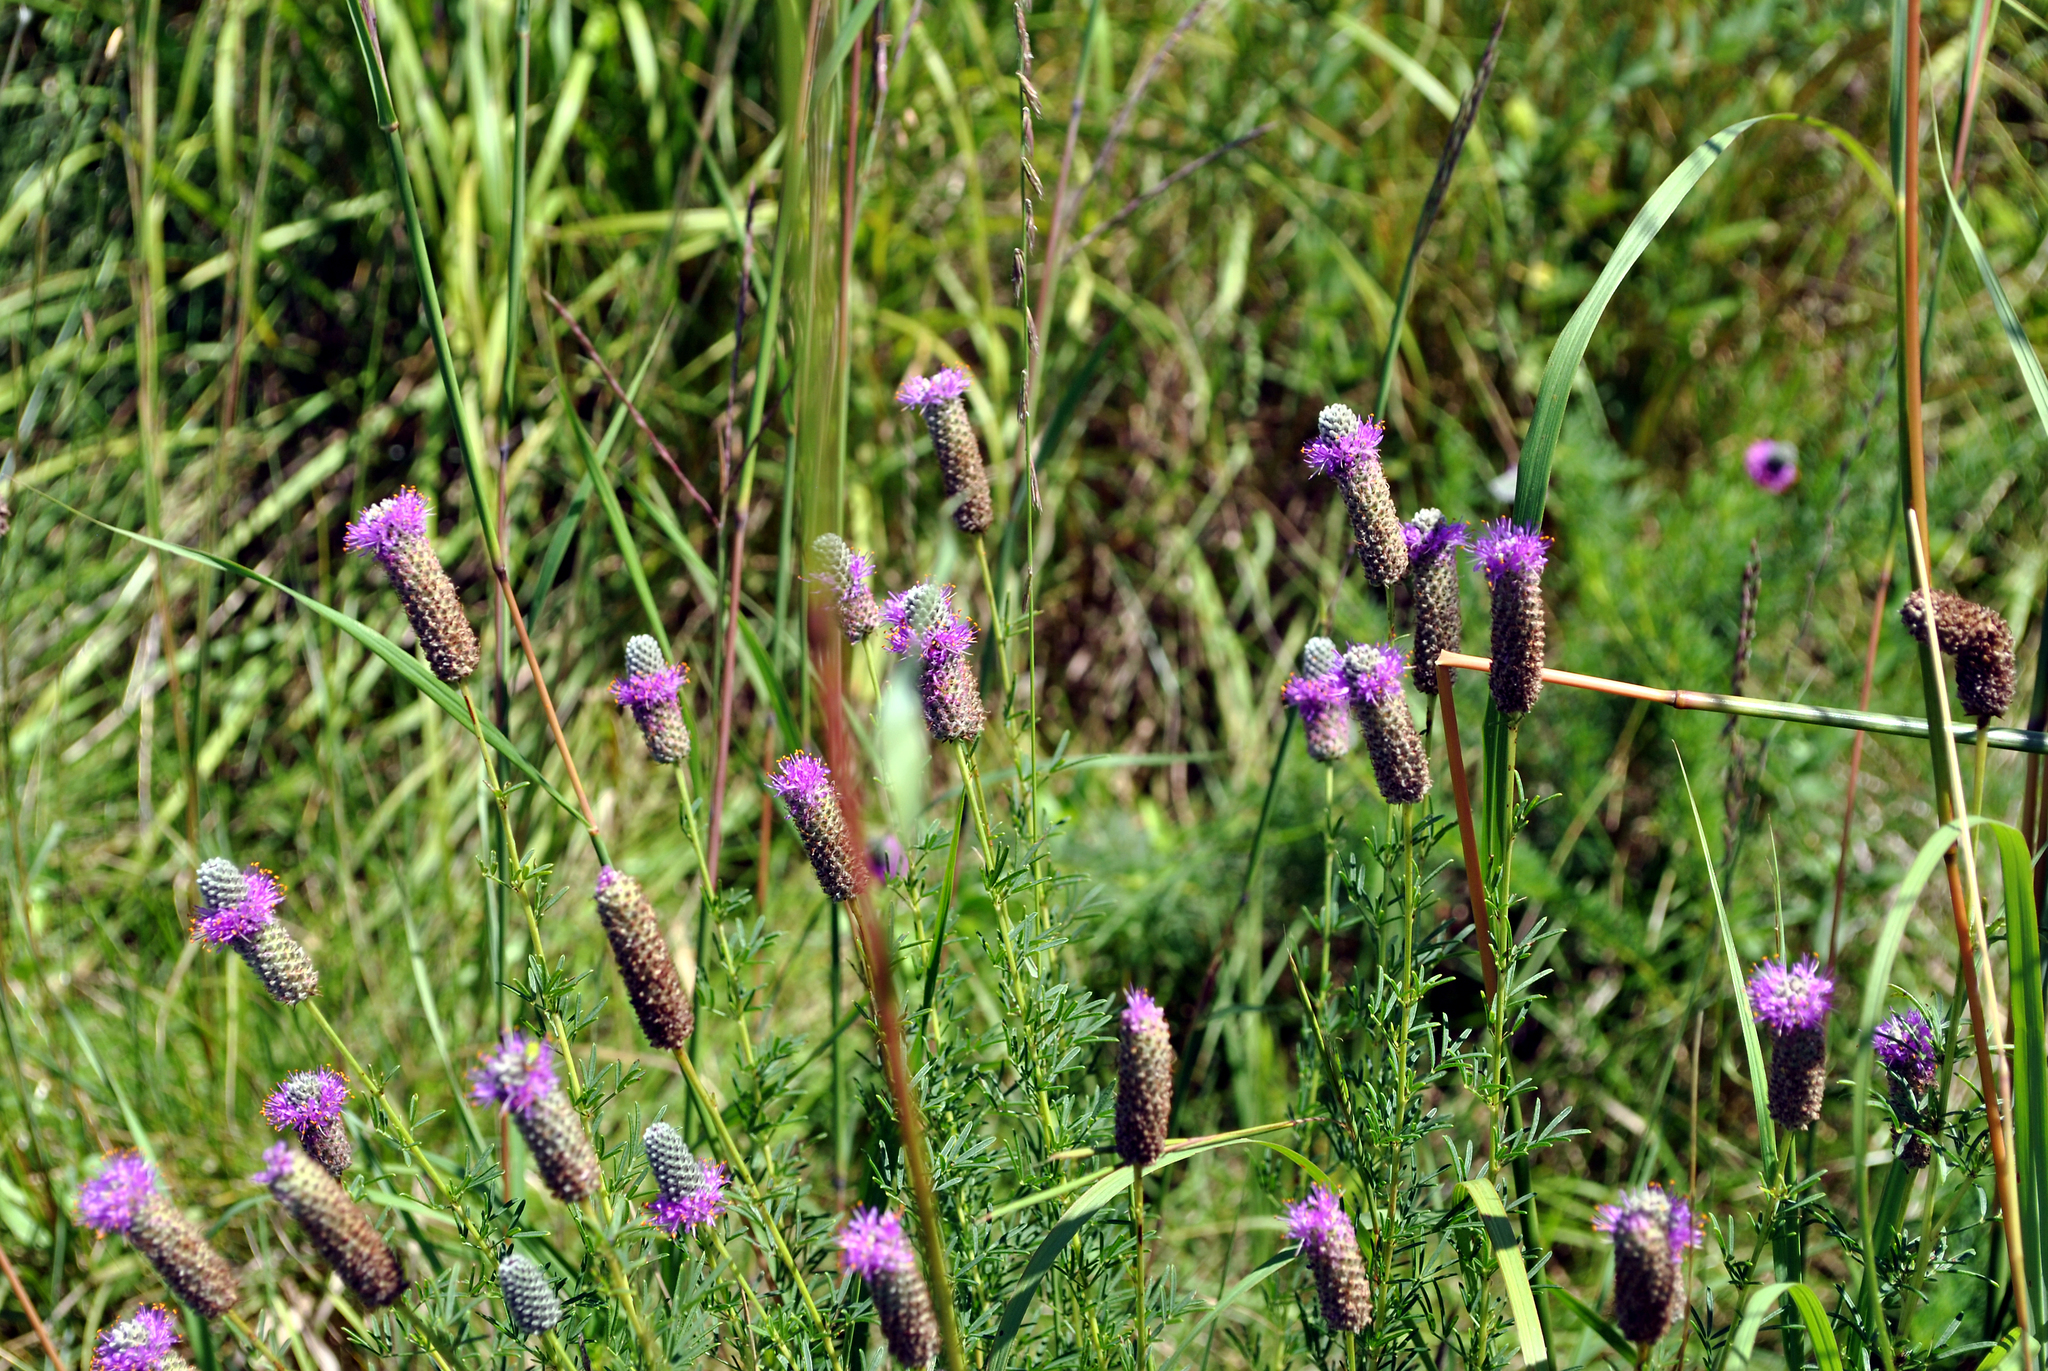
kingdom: Plantae
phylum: Tracheophyta
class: Magnoliopsida
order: Fabales
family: Fabaceae
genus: Dalea
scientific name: Dalea purpurea
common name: Purple prairie-clover
